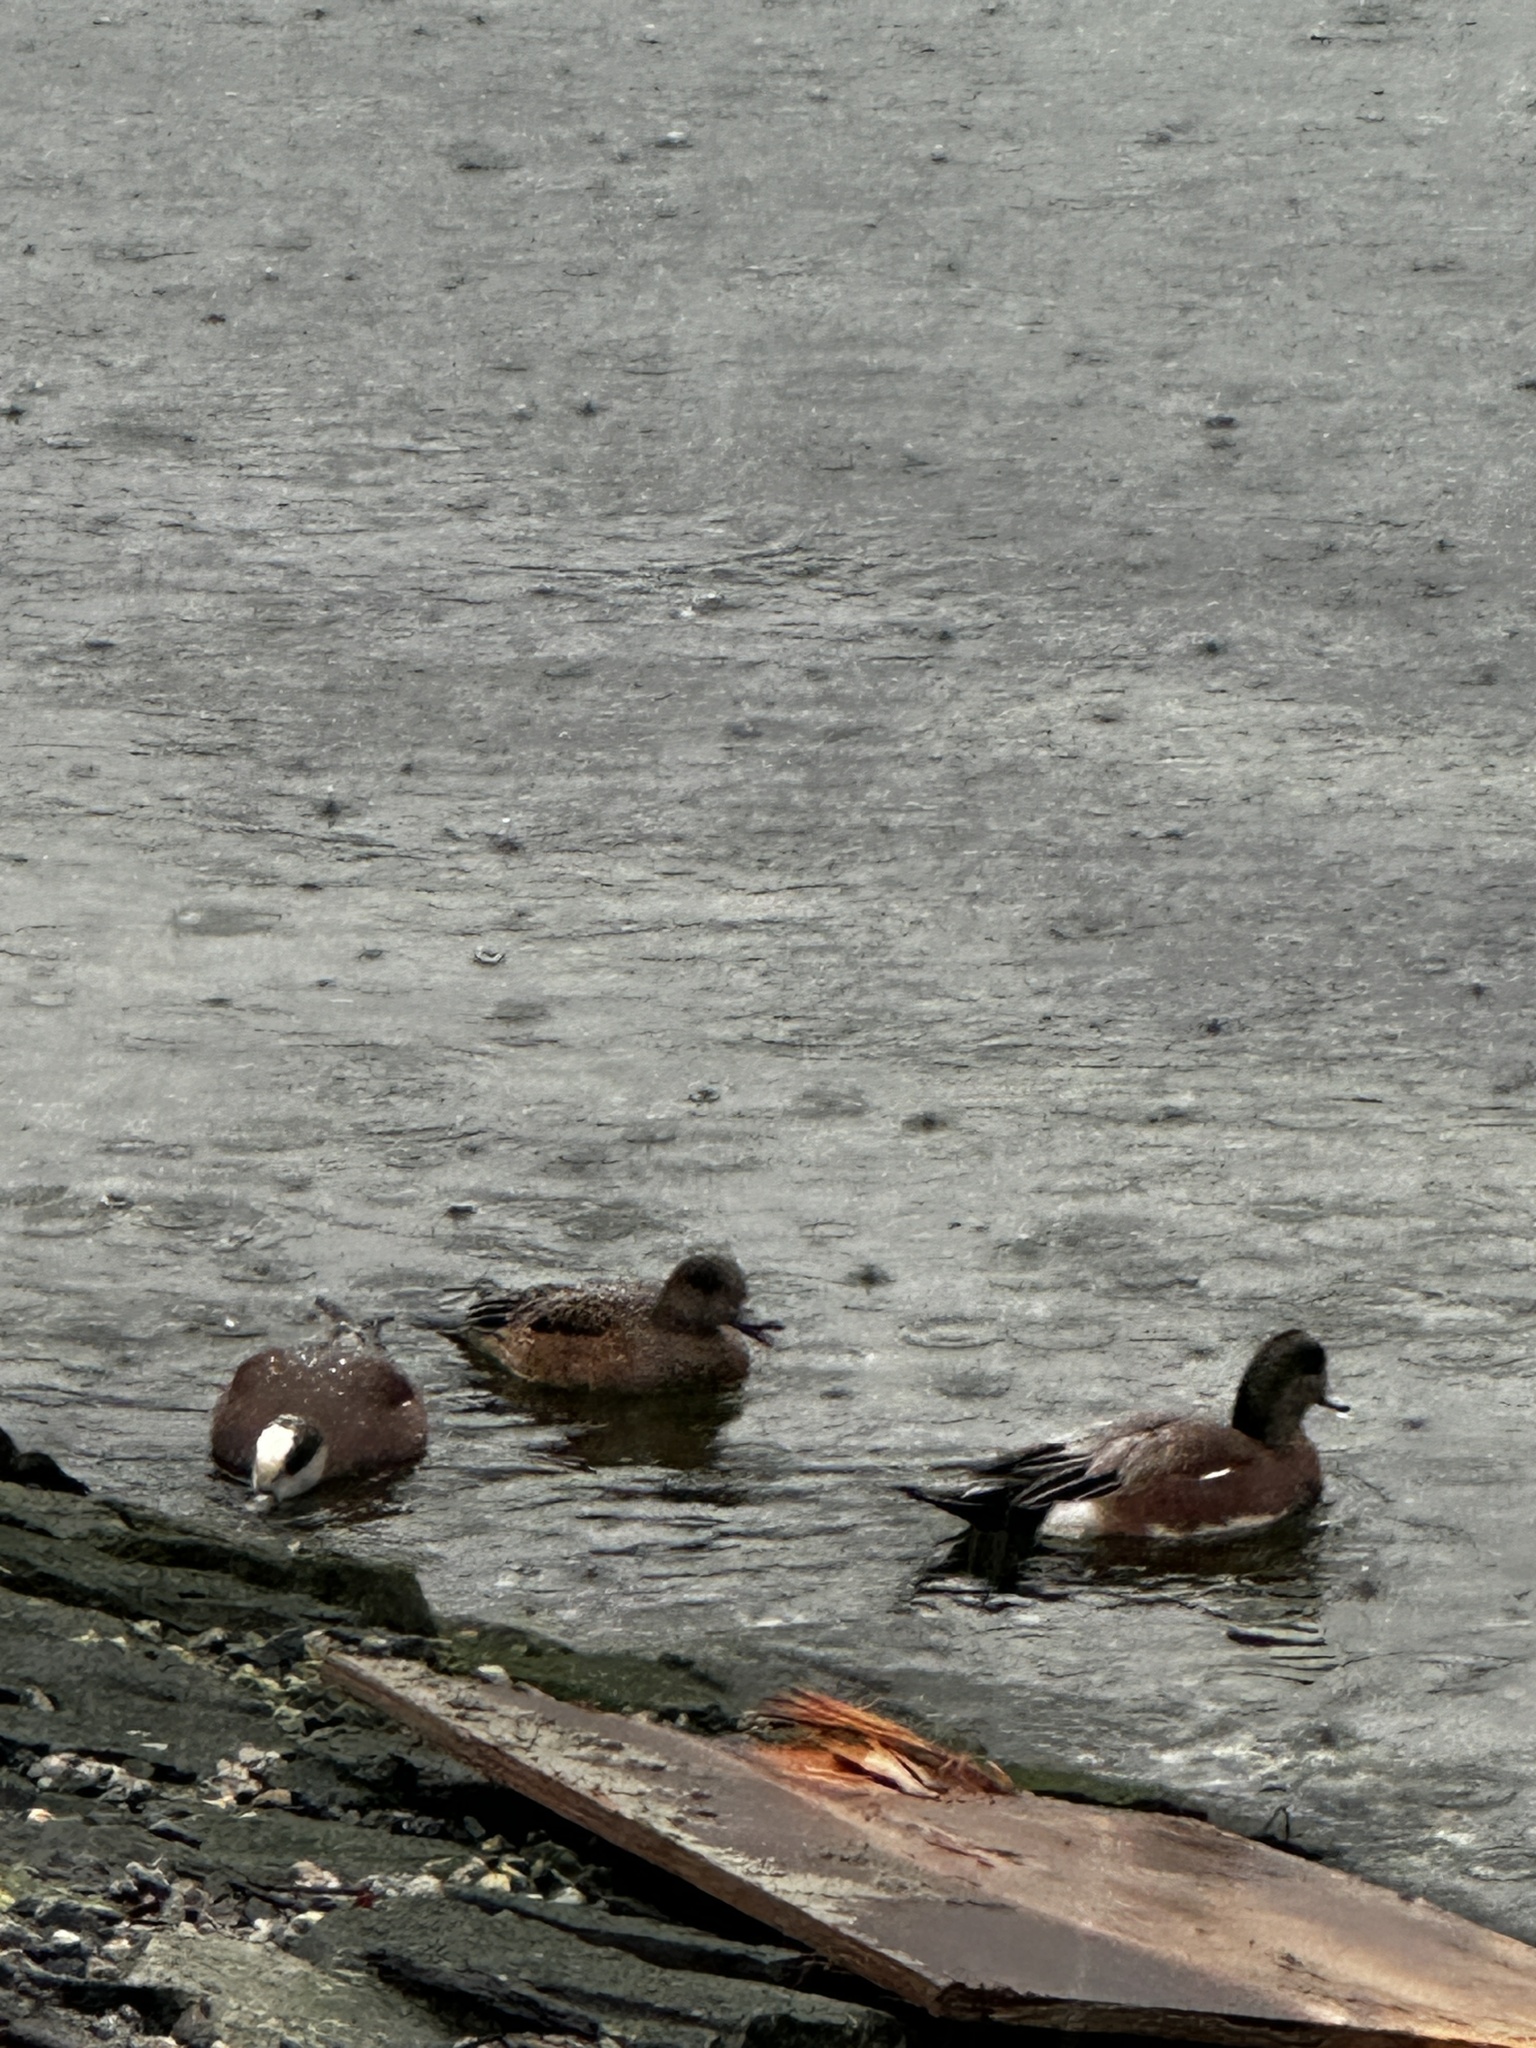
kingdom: Animalia
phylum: Chordata
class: Aves
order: Anseriformes
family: Anatidae
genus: Mareca
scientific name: Mareca americana
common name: American wigeon
